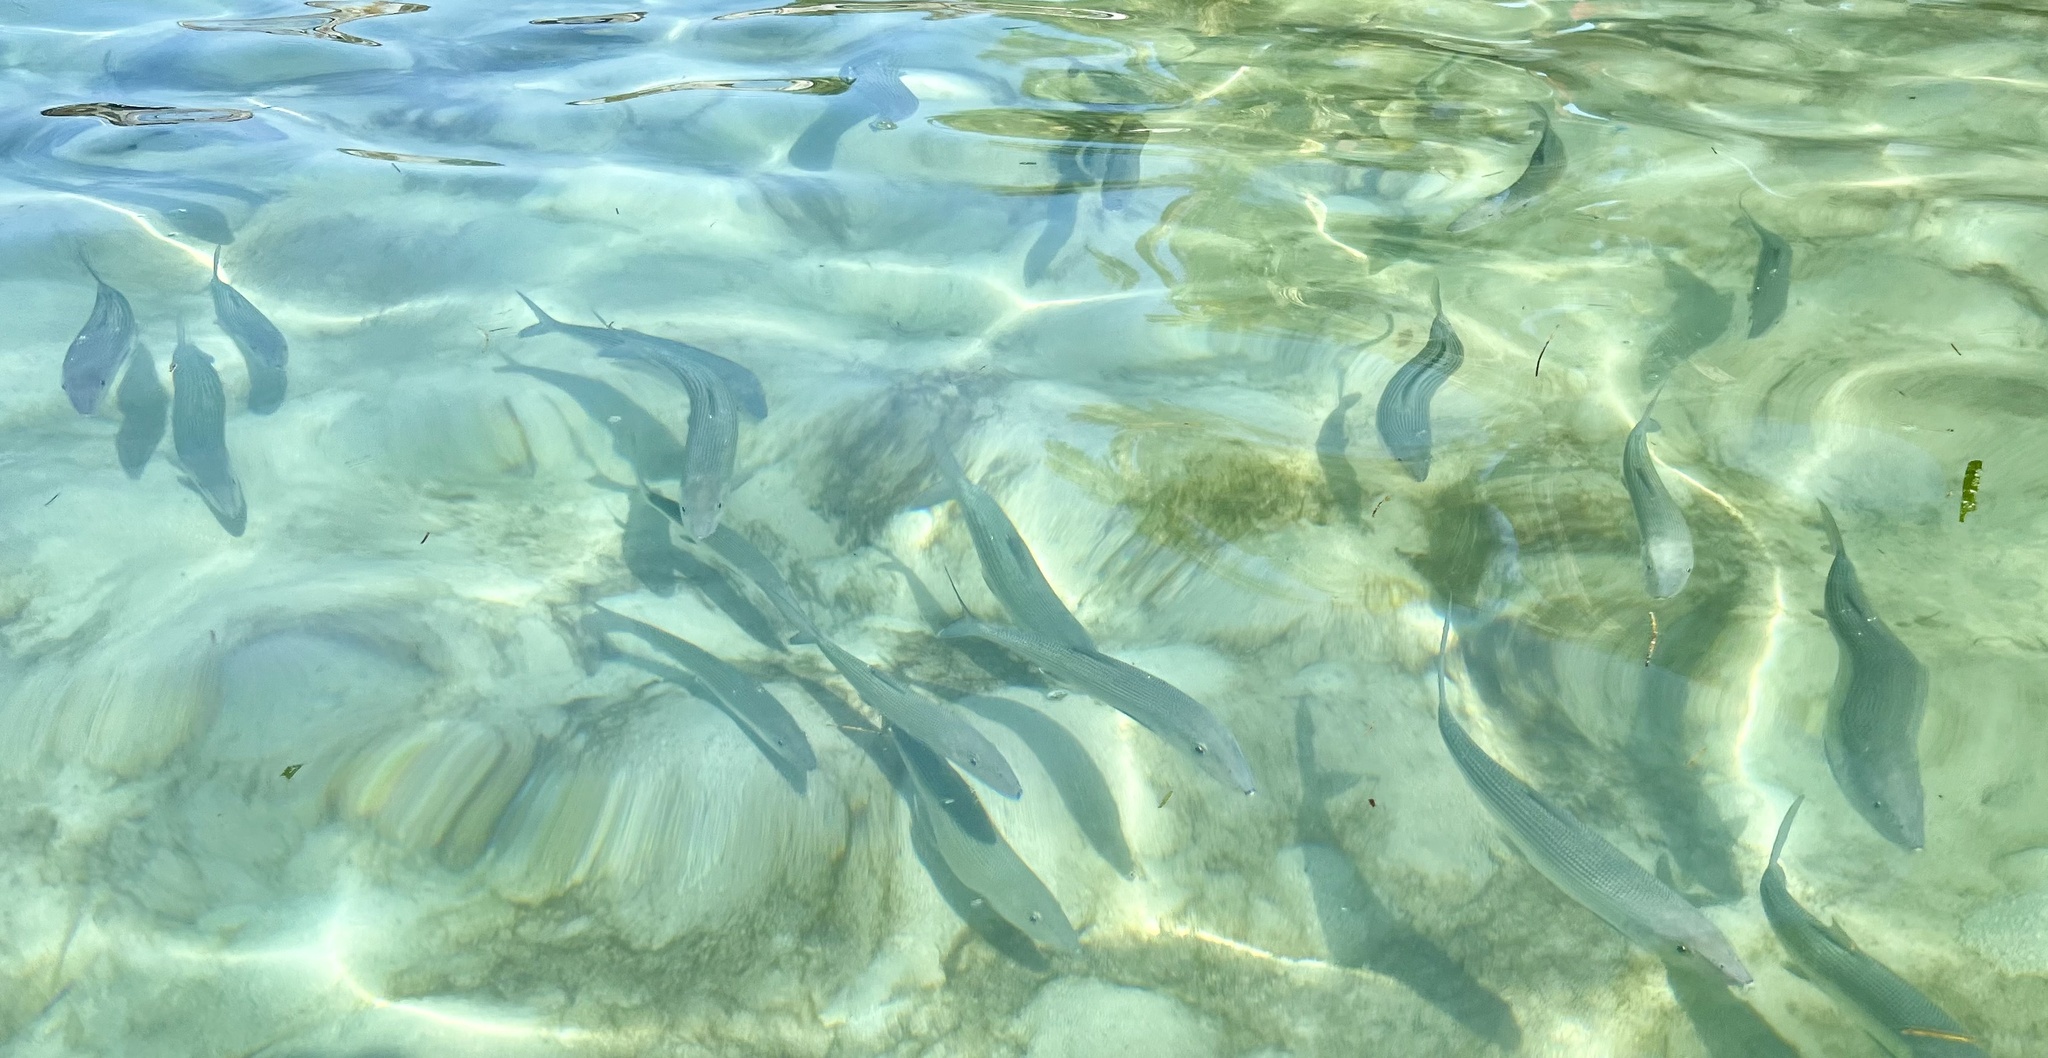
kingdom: Animalia
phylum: Chordata
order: Albuliformes
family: Albulidae
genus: Albula
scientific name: Albula vulpes
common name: Bonefish
